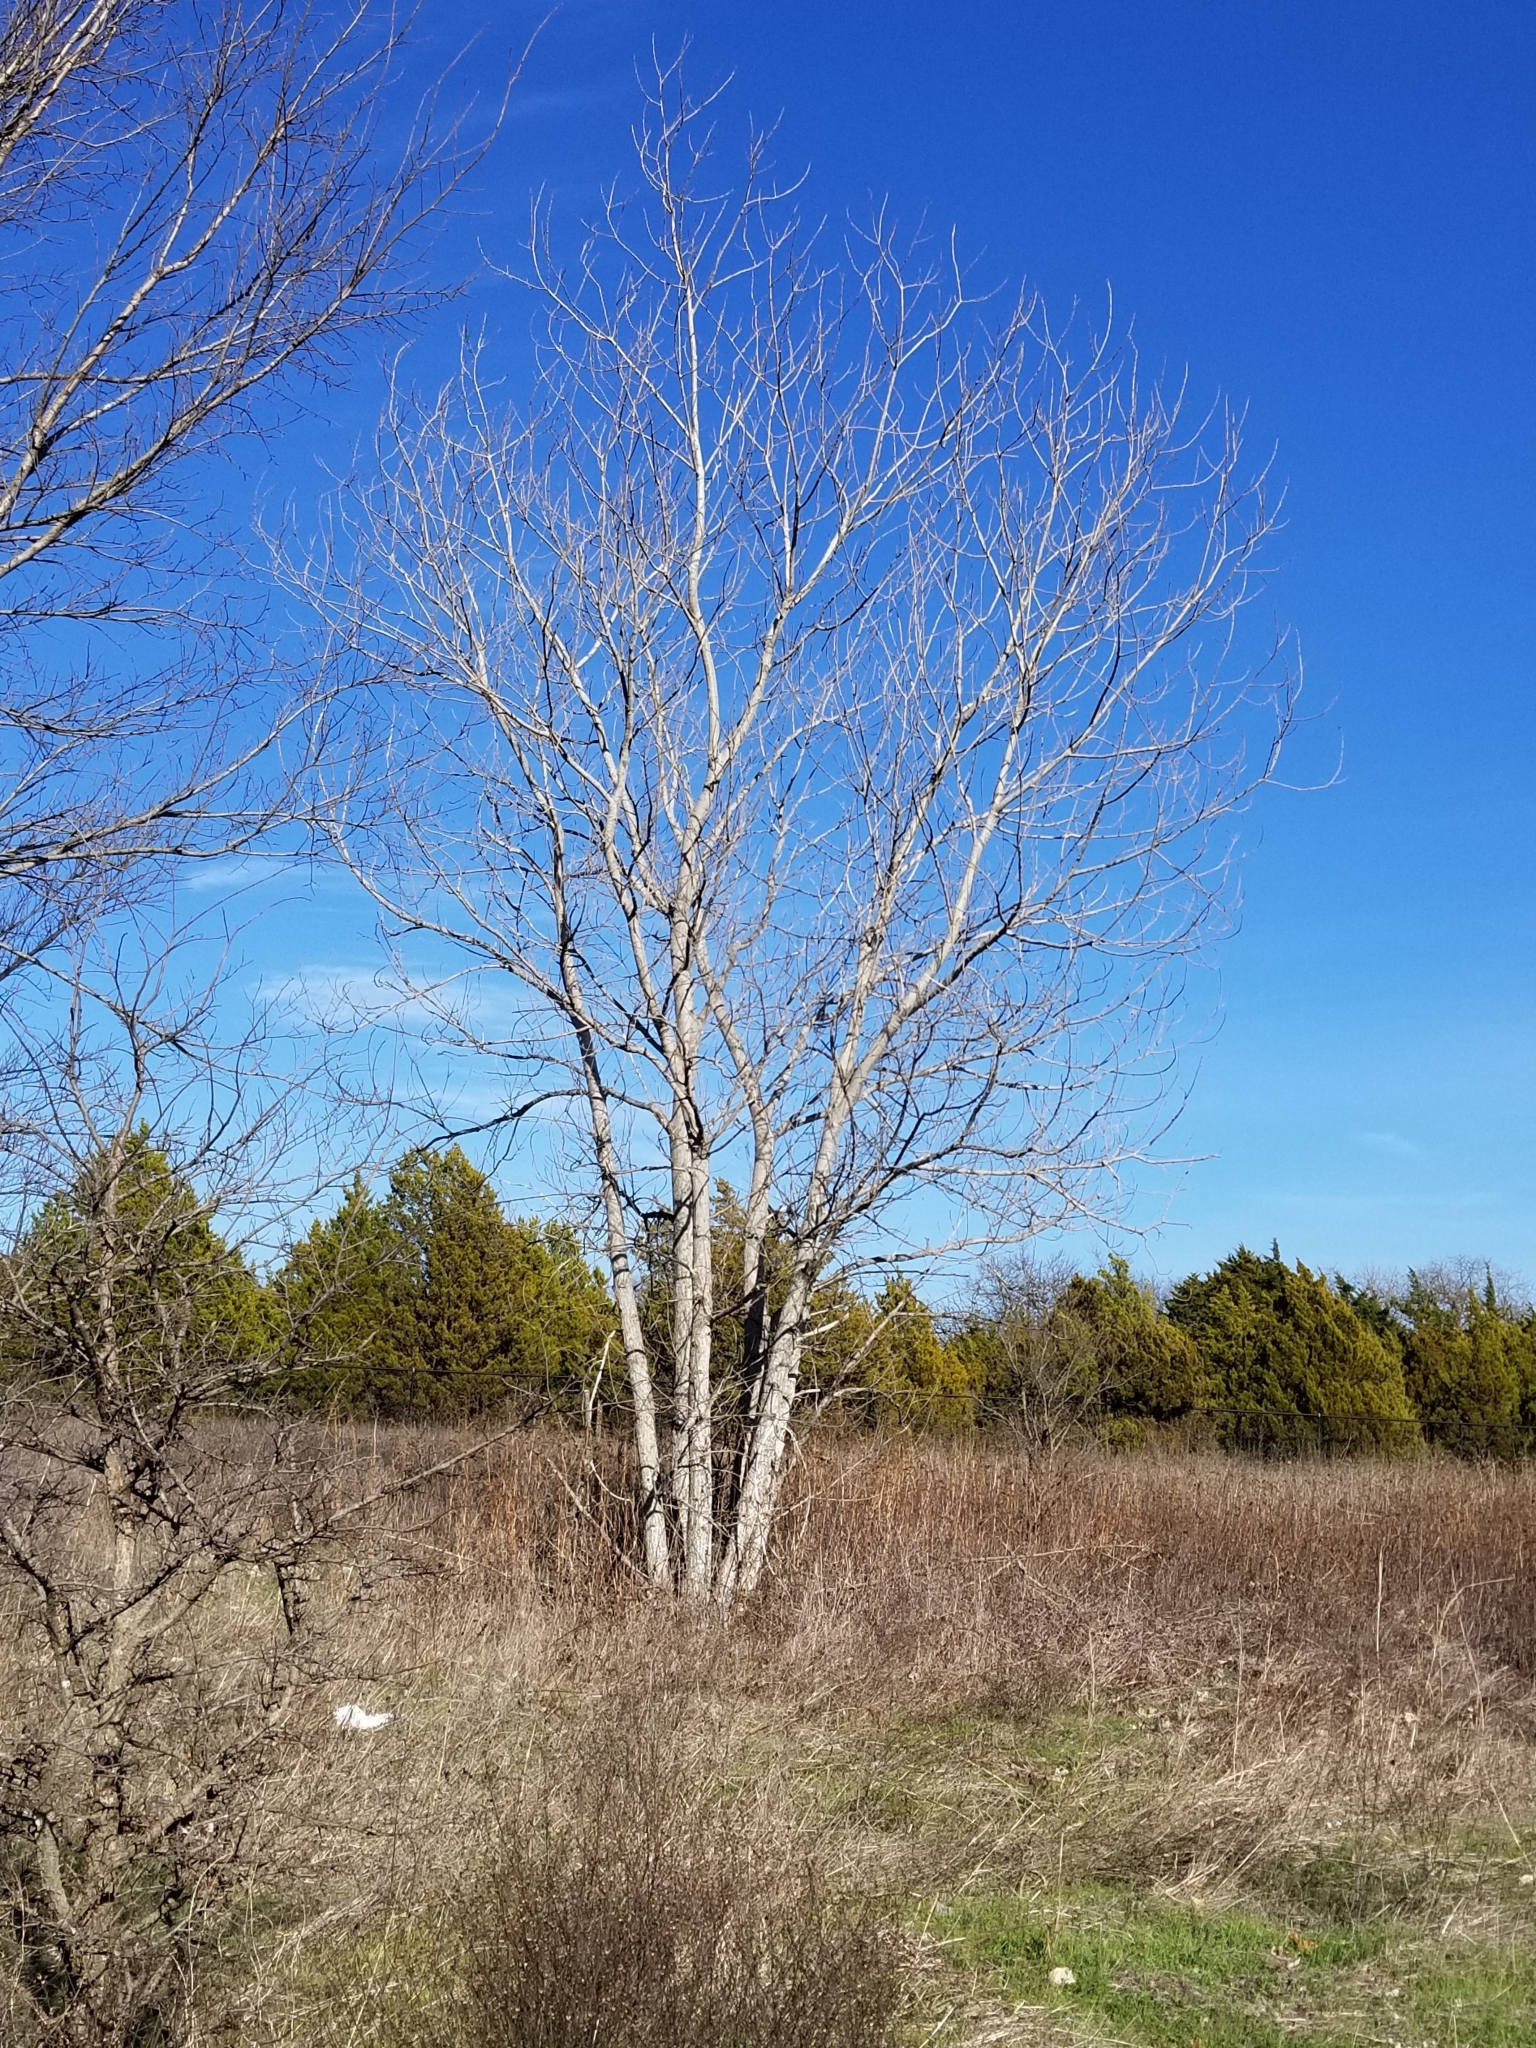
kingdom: Plantae
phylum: Tracheophyta
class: Magnoliopsida
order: Malpighiales
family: Salicaceae
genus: Populus
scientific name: Populus deltoides
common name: Eastern cottonwood
